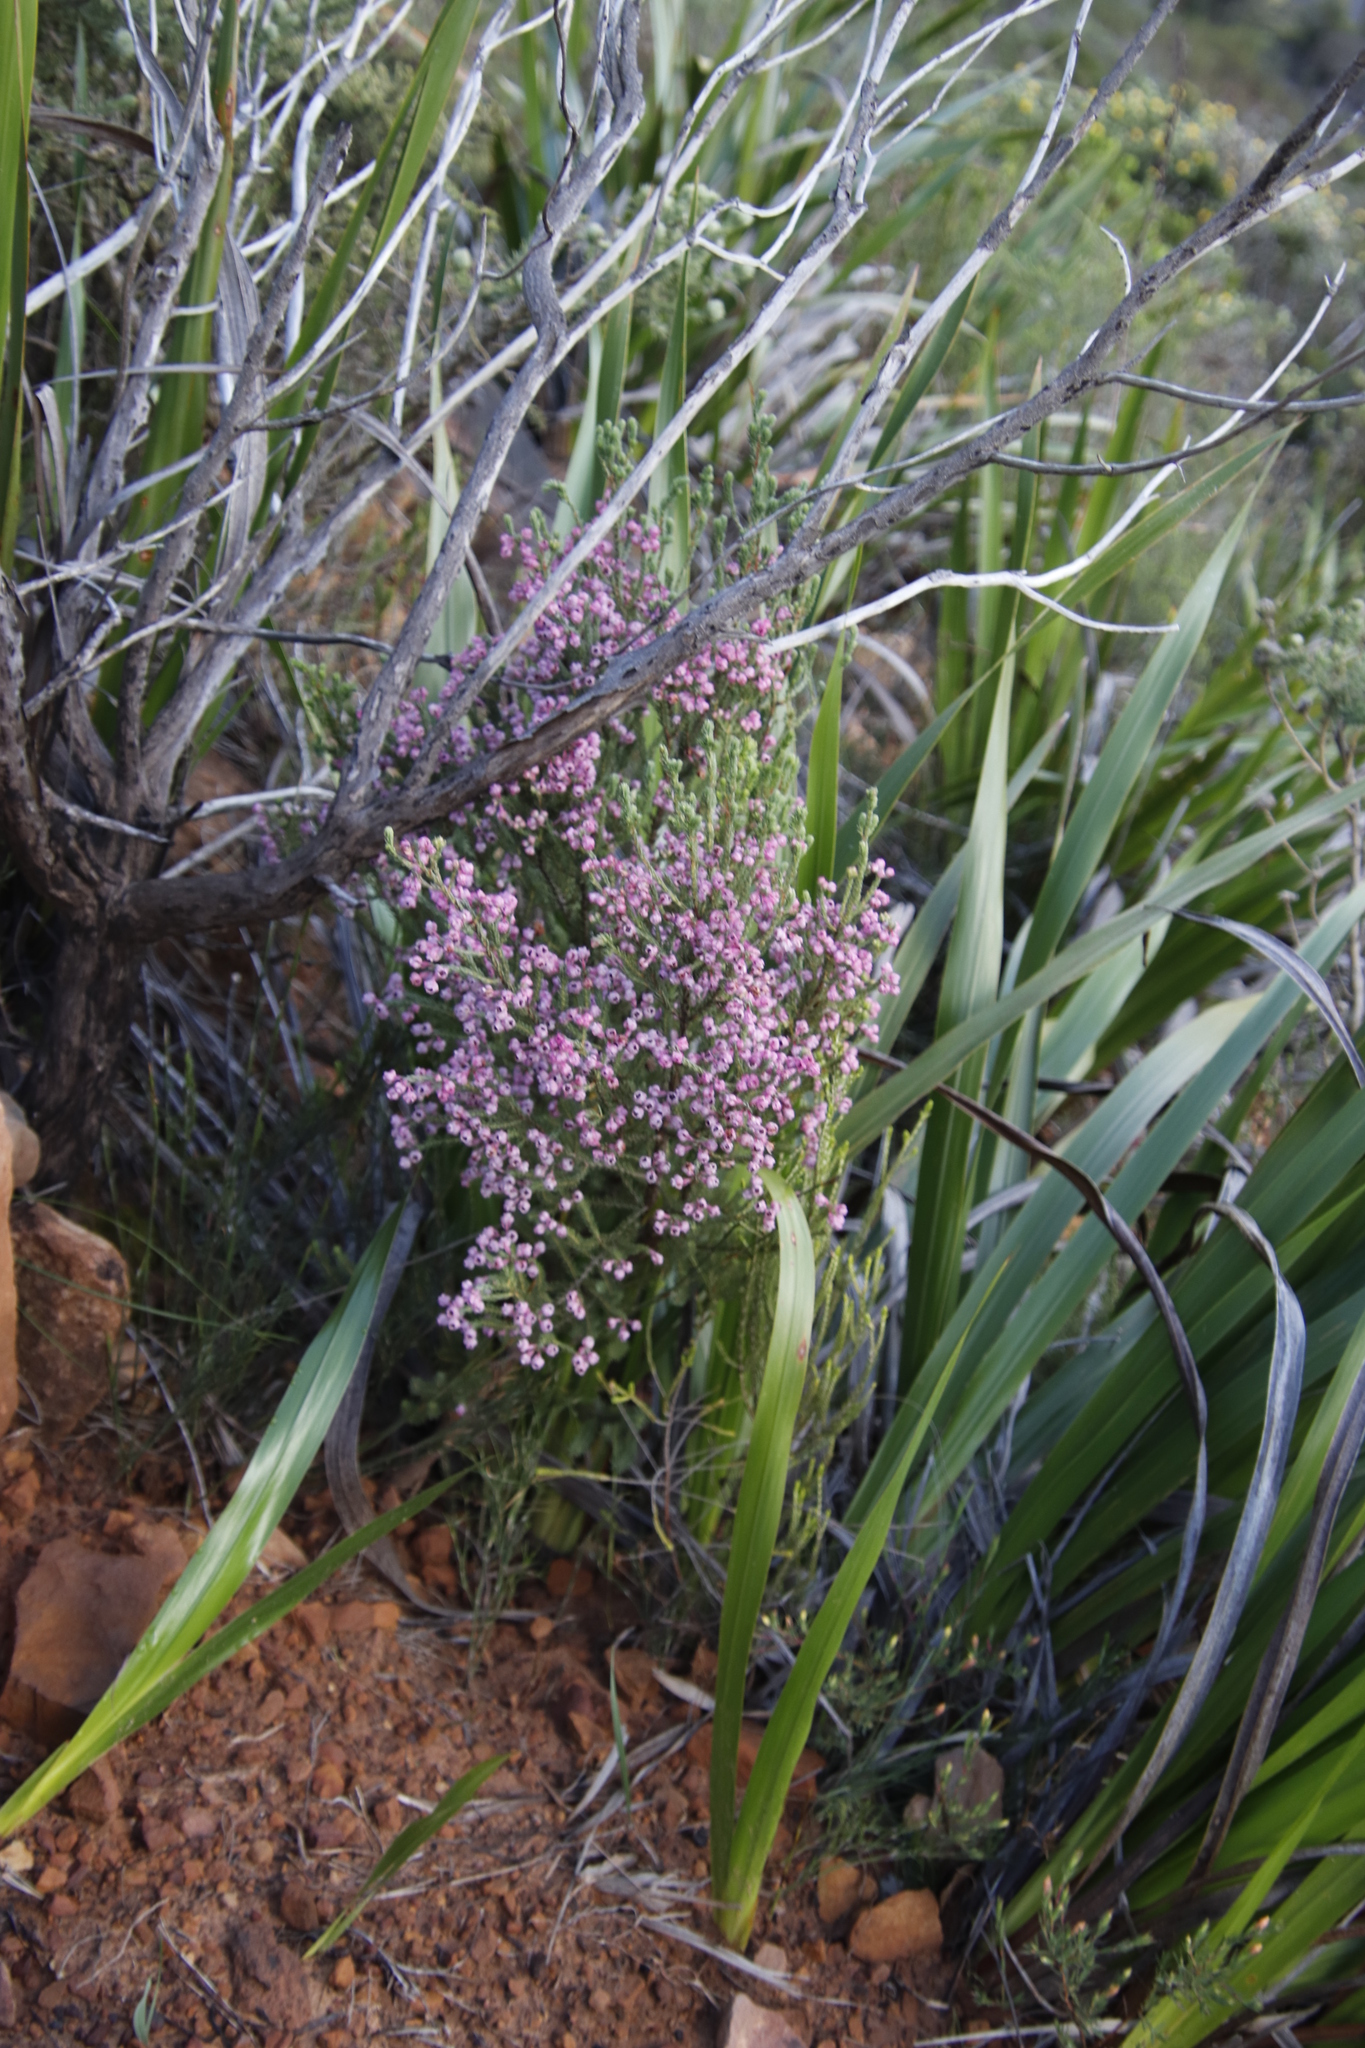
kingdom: Plantae
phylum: Tracheophyta
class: Magnoliopsida
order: Ericales
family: Ericaceae
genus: Erica
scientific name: Erica baccans
